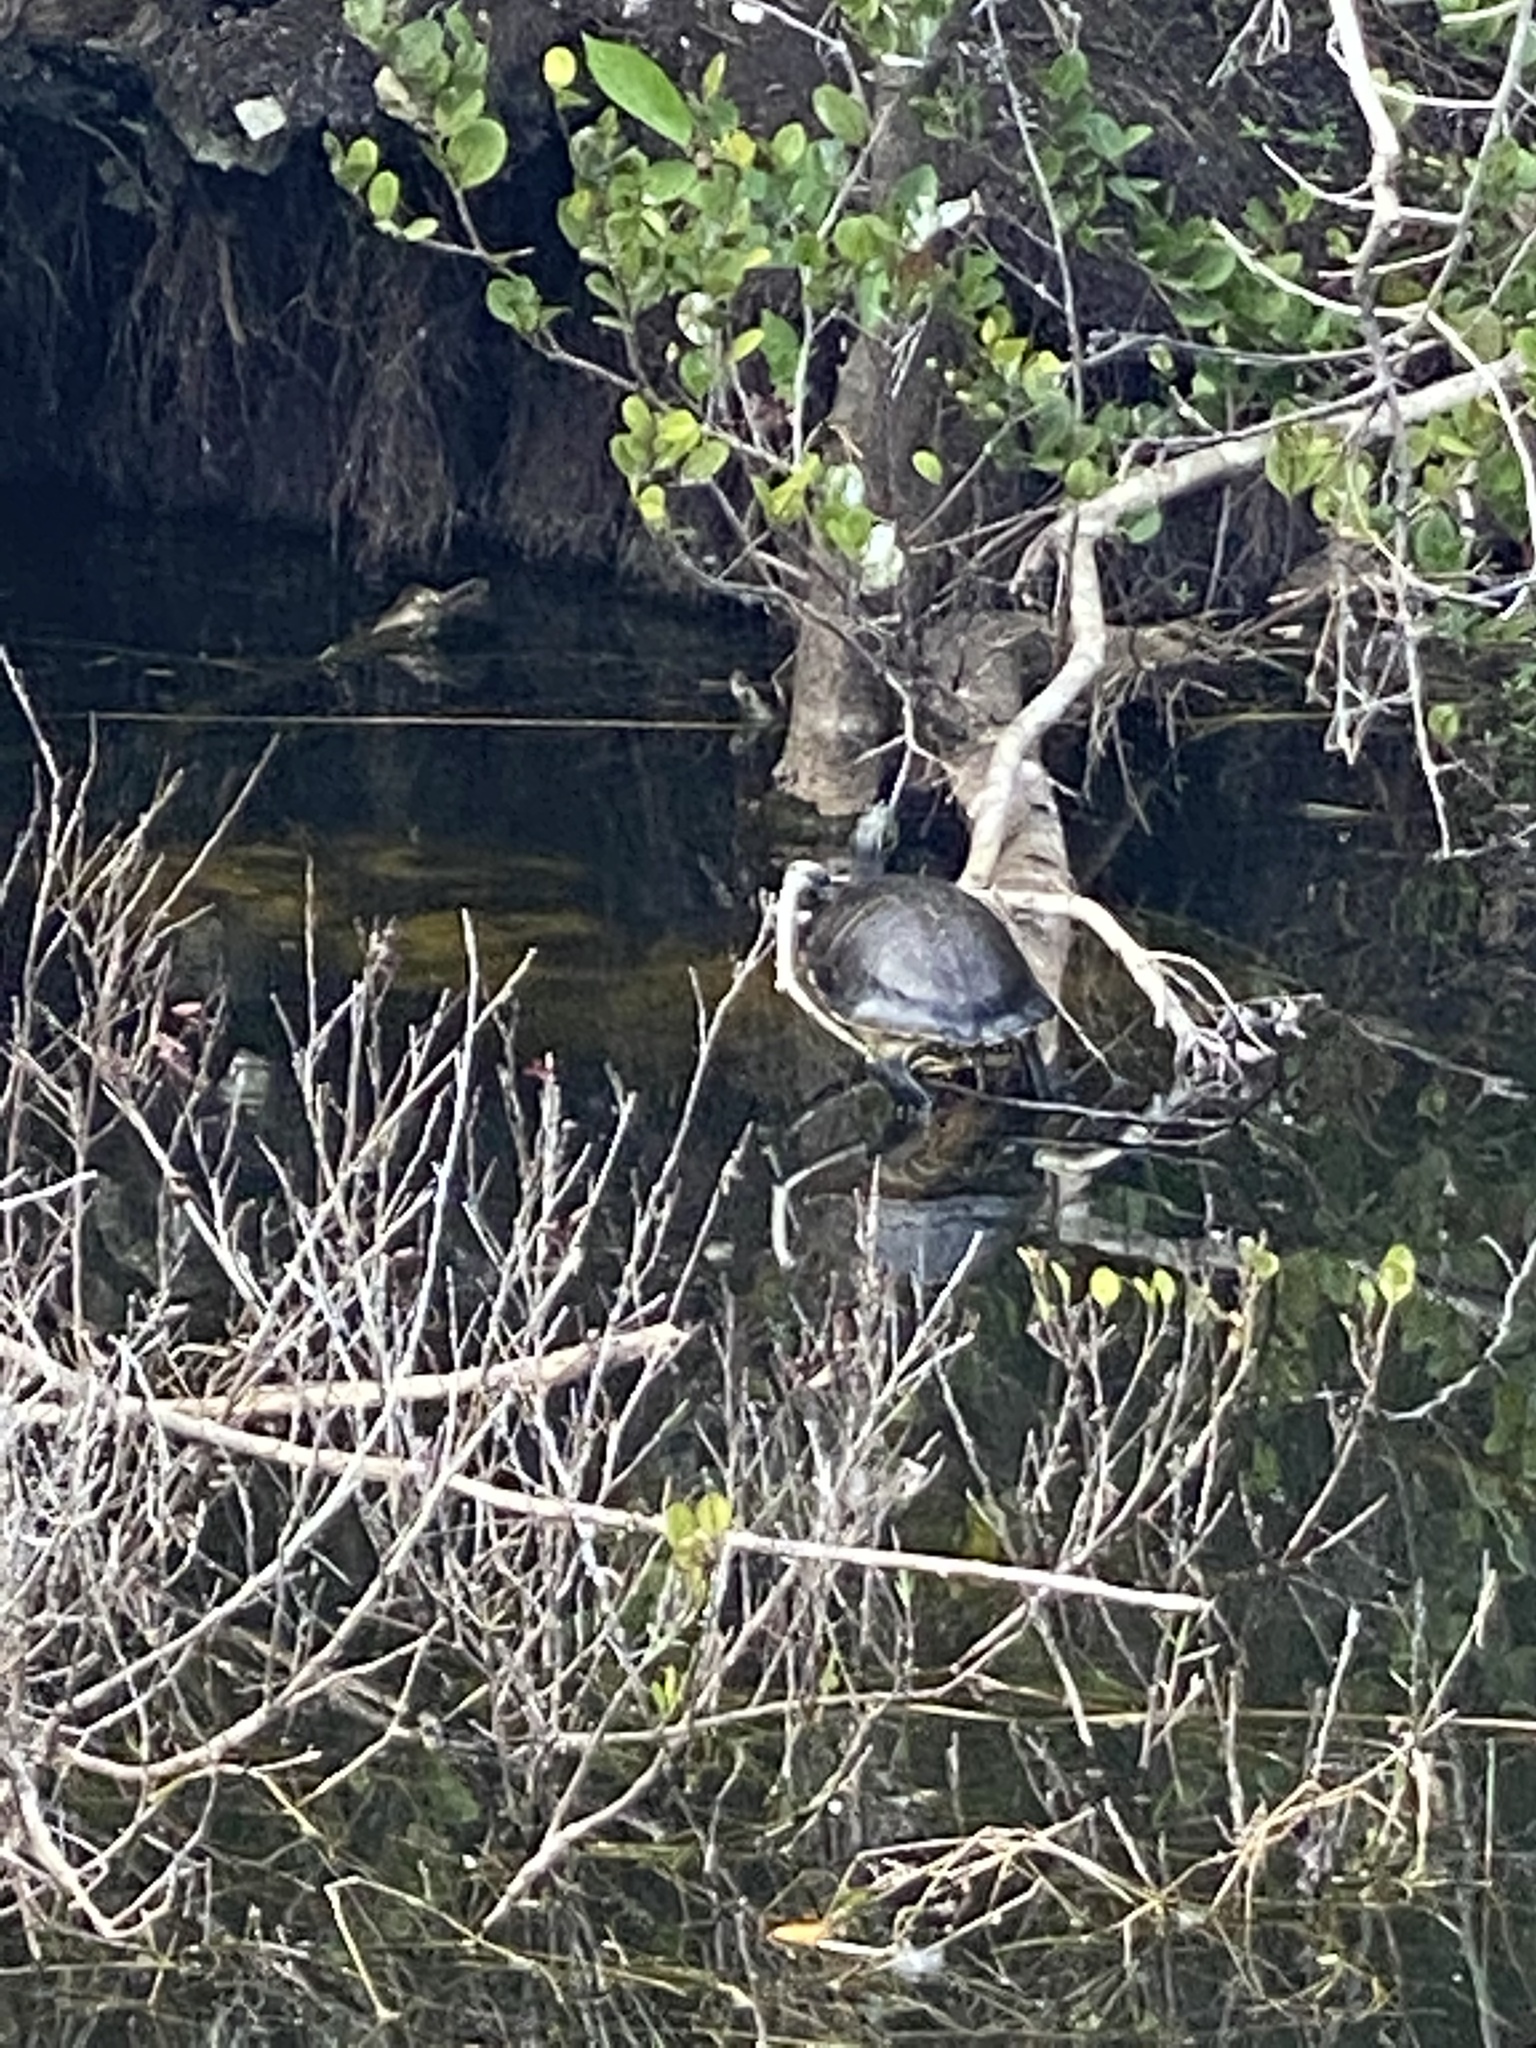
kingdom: Animalia
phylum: Chordata
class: Testudines
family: Emydidae
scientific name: Emydidae
